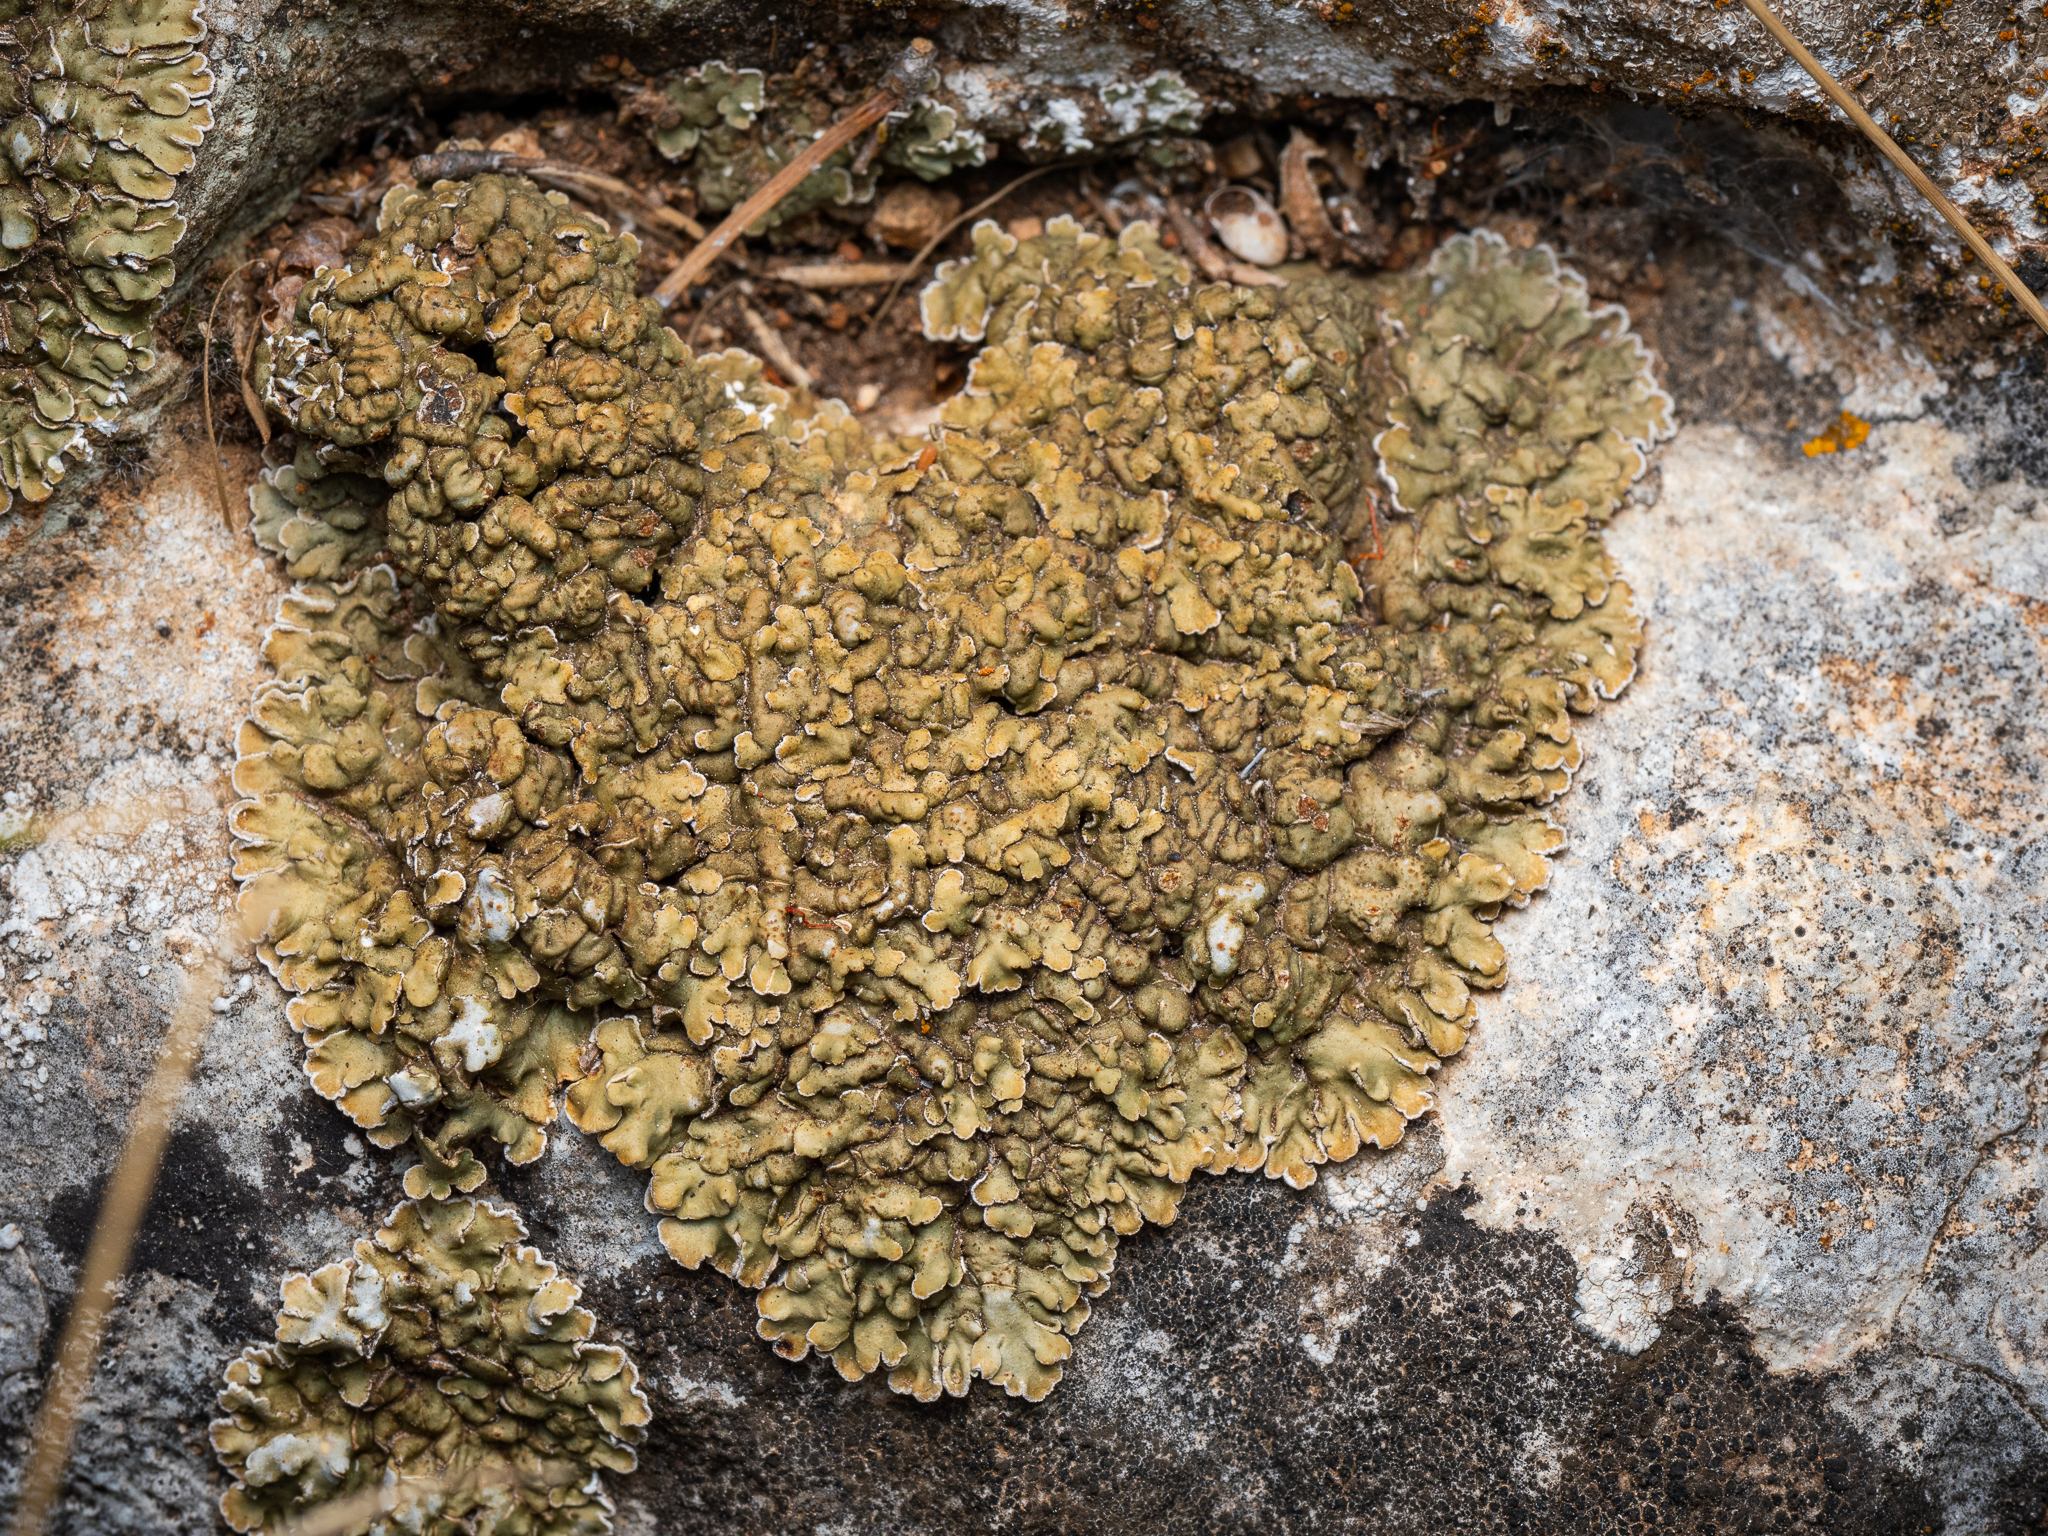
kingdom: Fungi
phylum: Ascomycota
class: Lecanoromycetes
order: Lecanorales
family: Stereocaulaceae
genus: Squamarina
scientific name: Squamarina cartilaginea
